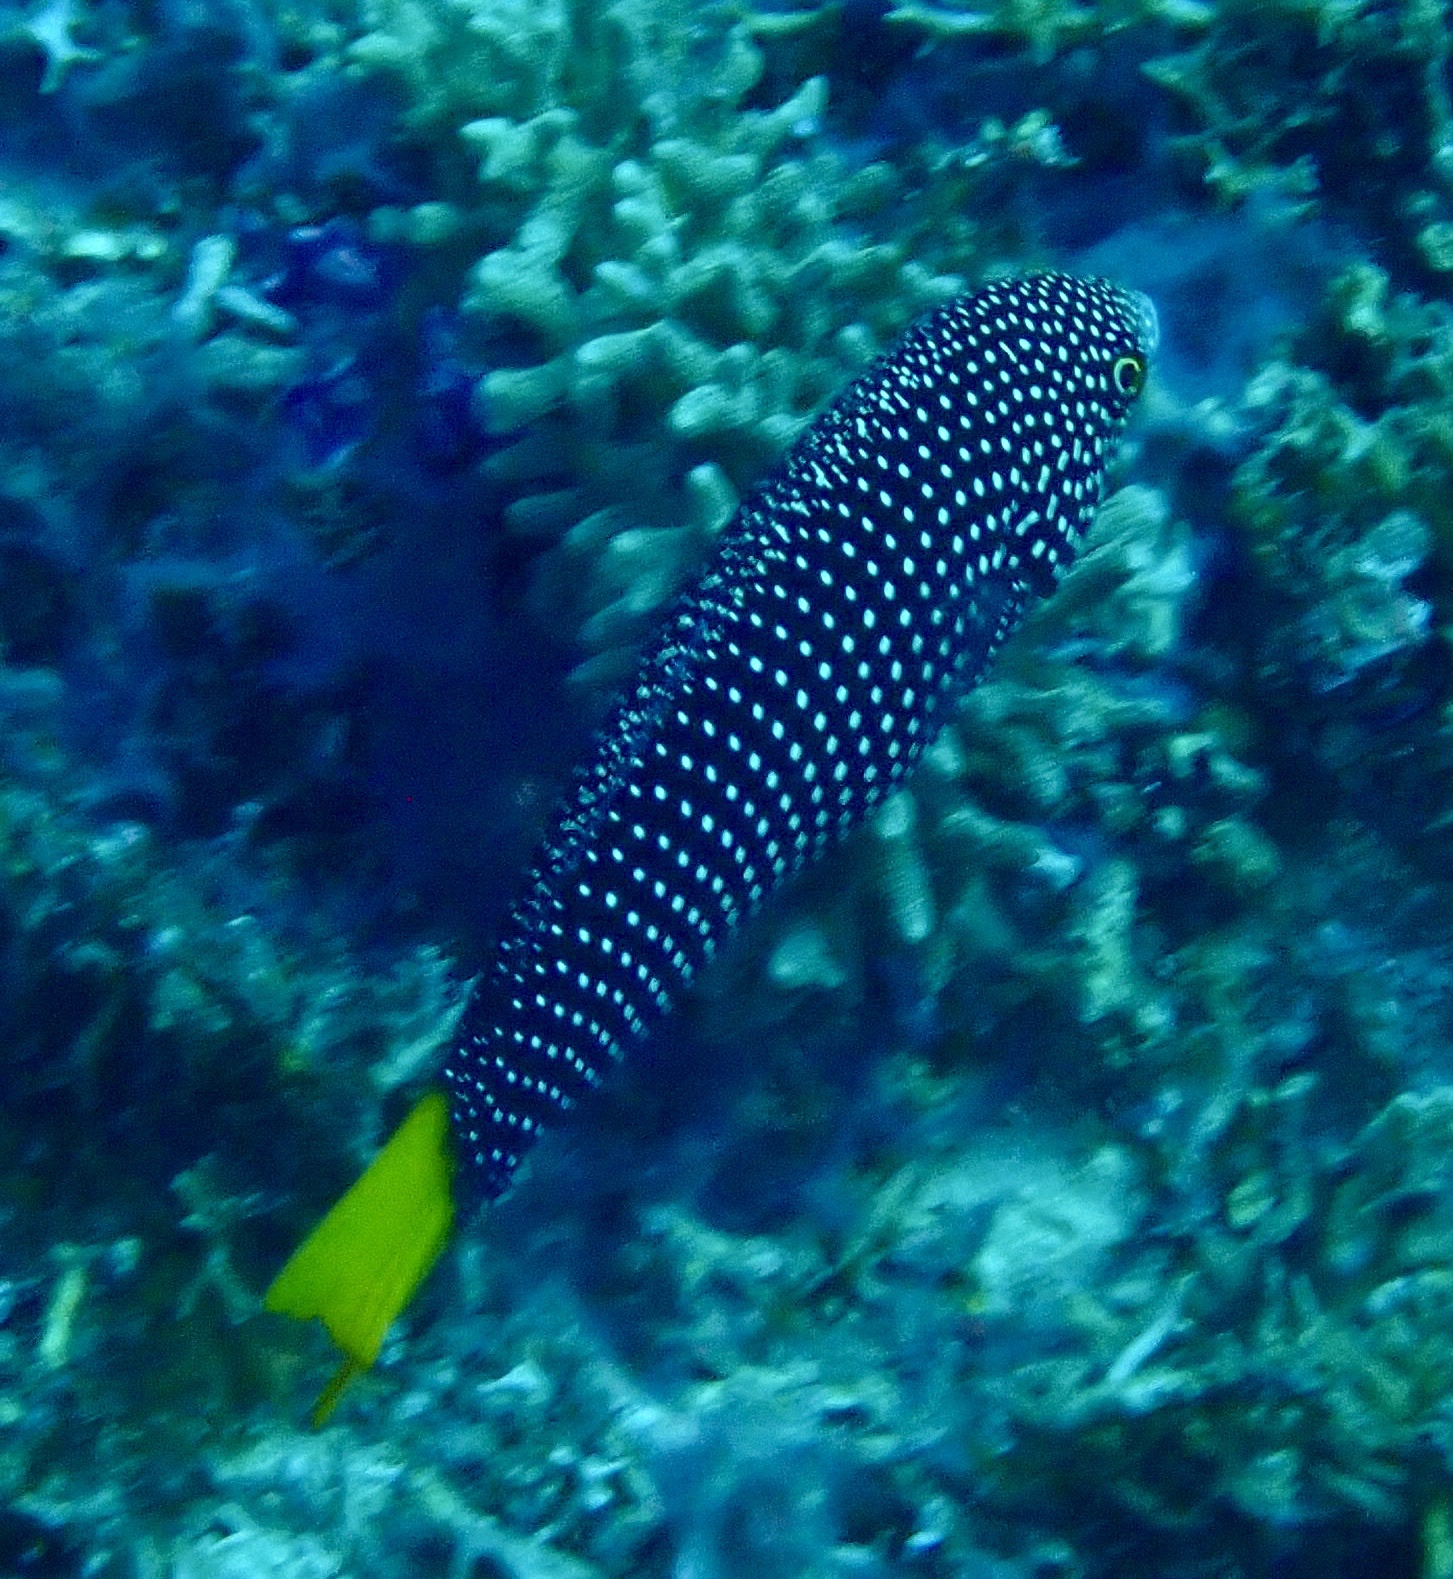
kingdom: Animalia
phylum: Chordata
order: Perciformes
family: Labridae
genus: Anampses
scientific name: Anampses meleagrides
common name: Yellowtail wrasse
